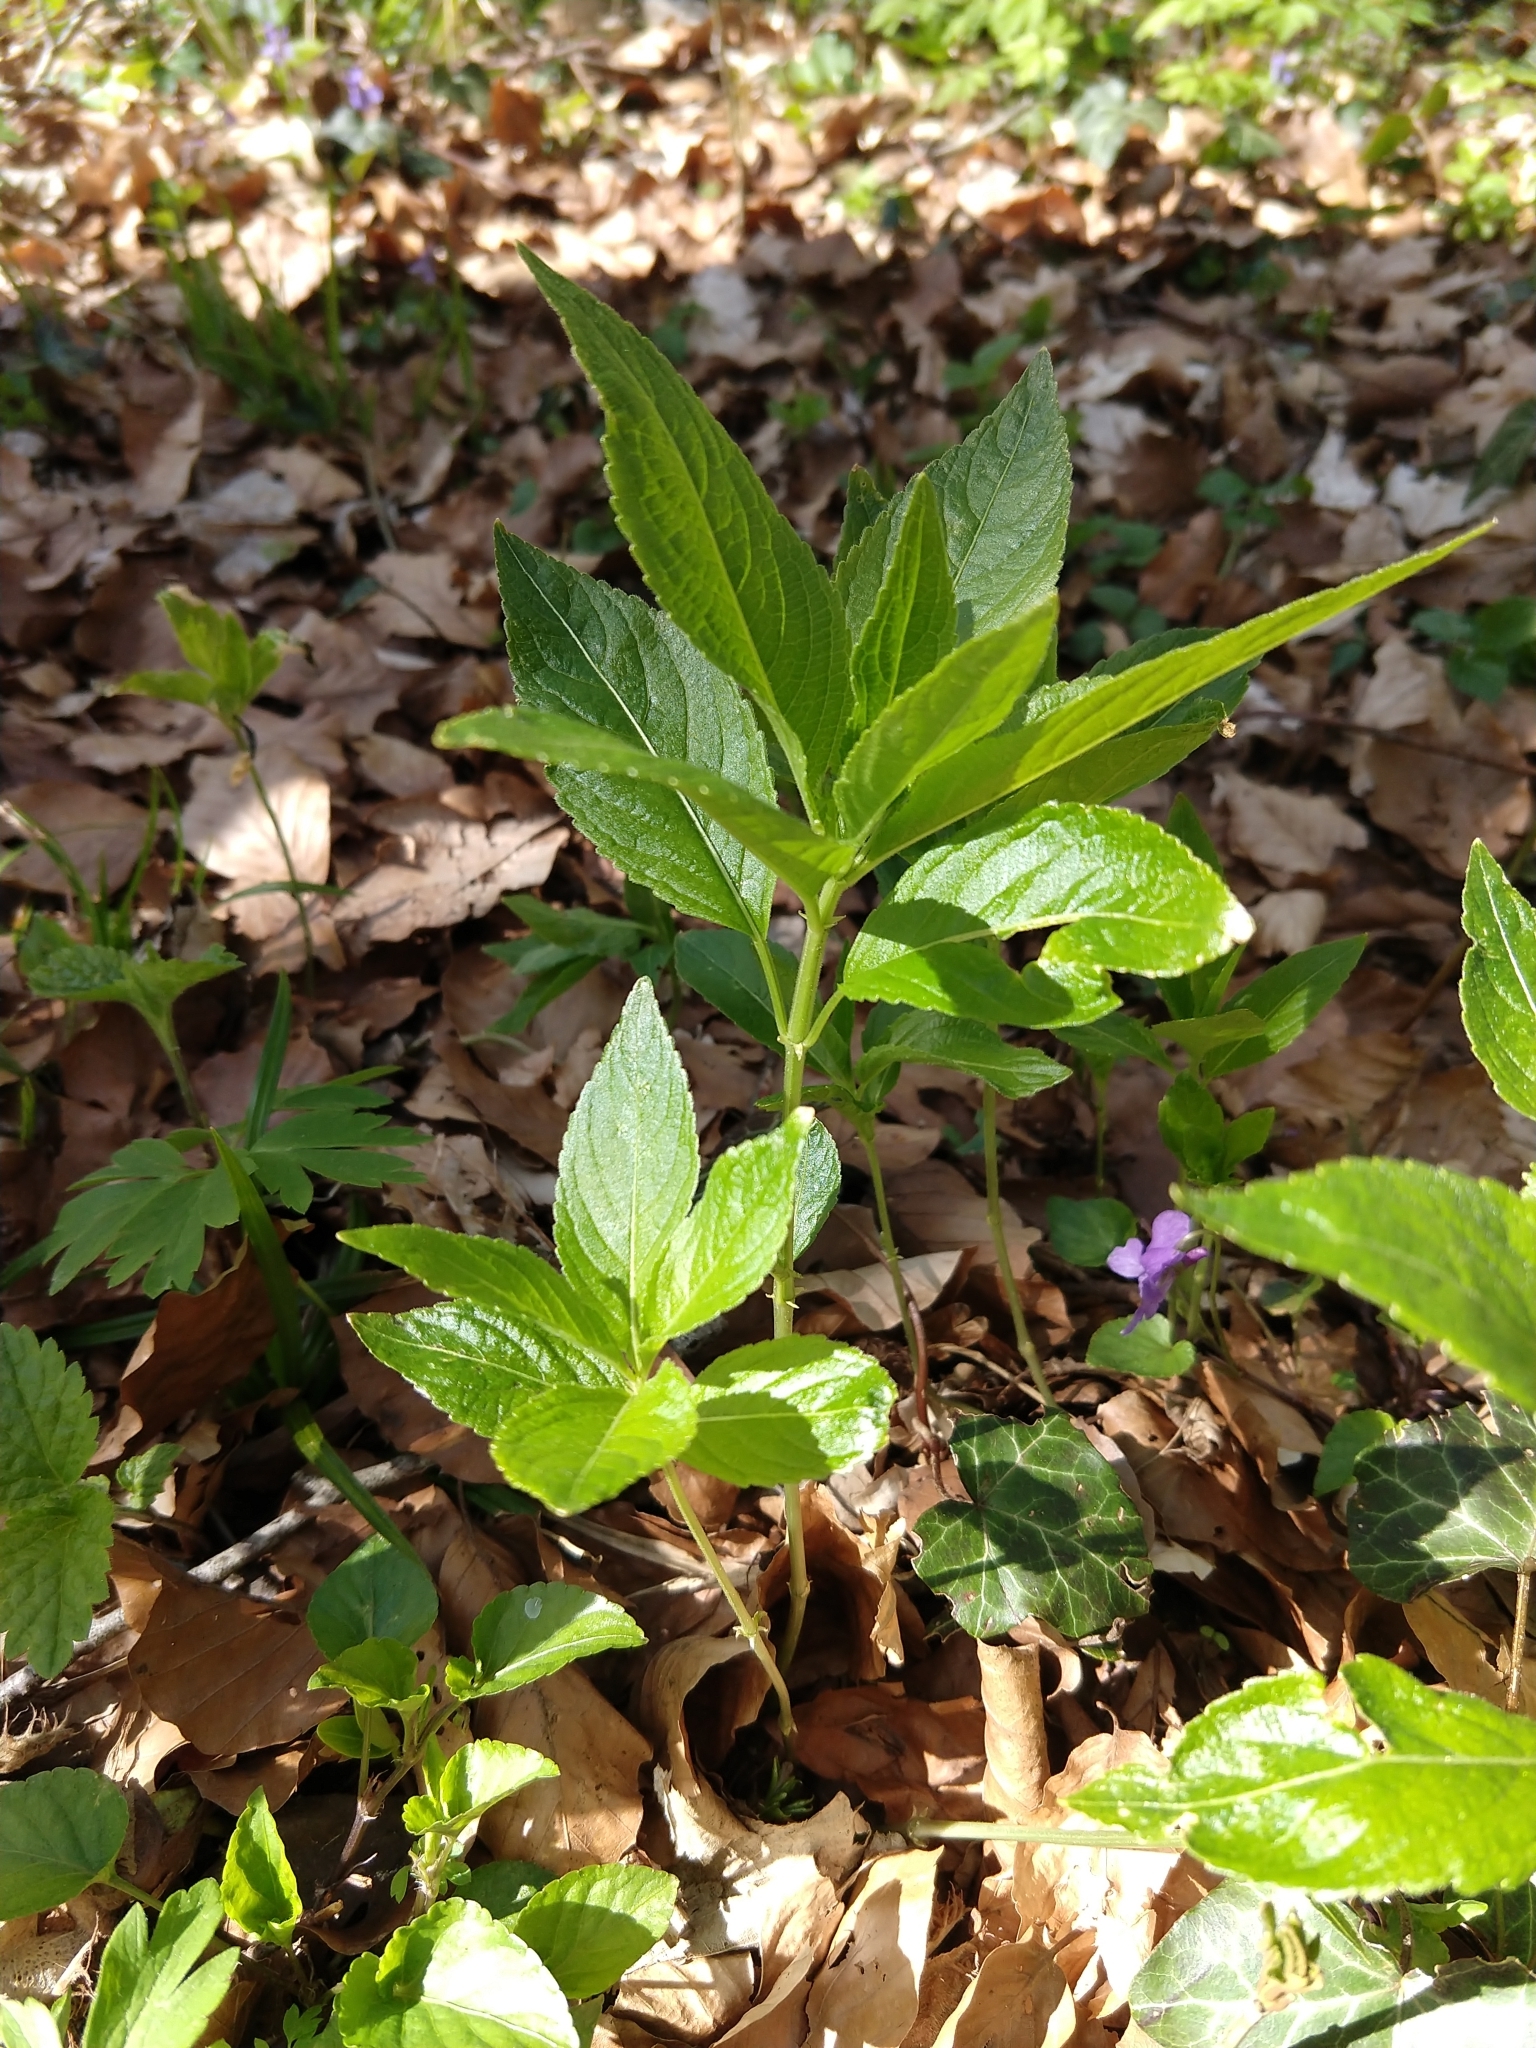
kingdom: Plantae
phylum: Tracheophyta
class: Magnoliopsida
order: Malpighiales
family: Euphorbiaceae
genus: Mercurialis
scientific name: Mercurialis perennis
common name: Dog mercury
